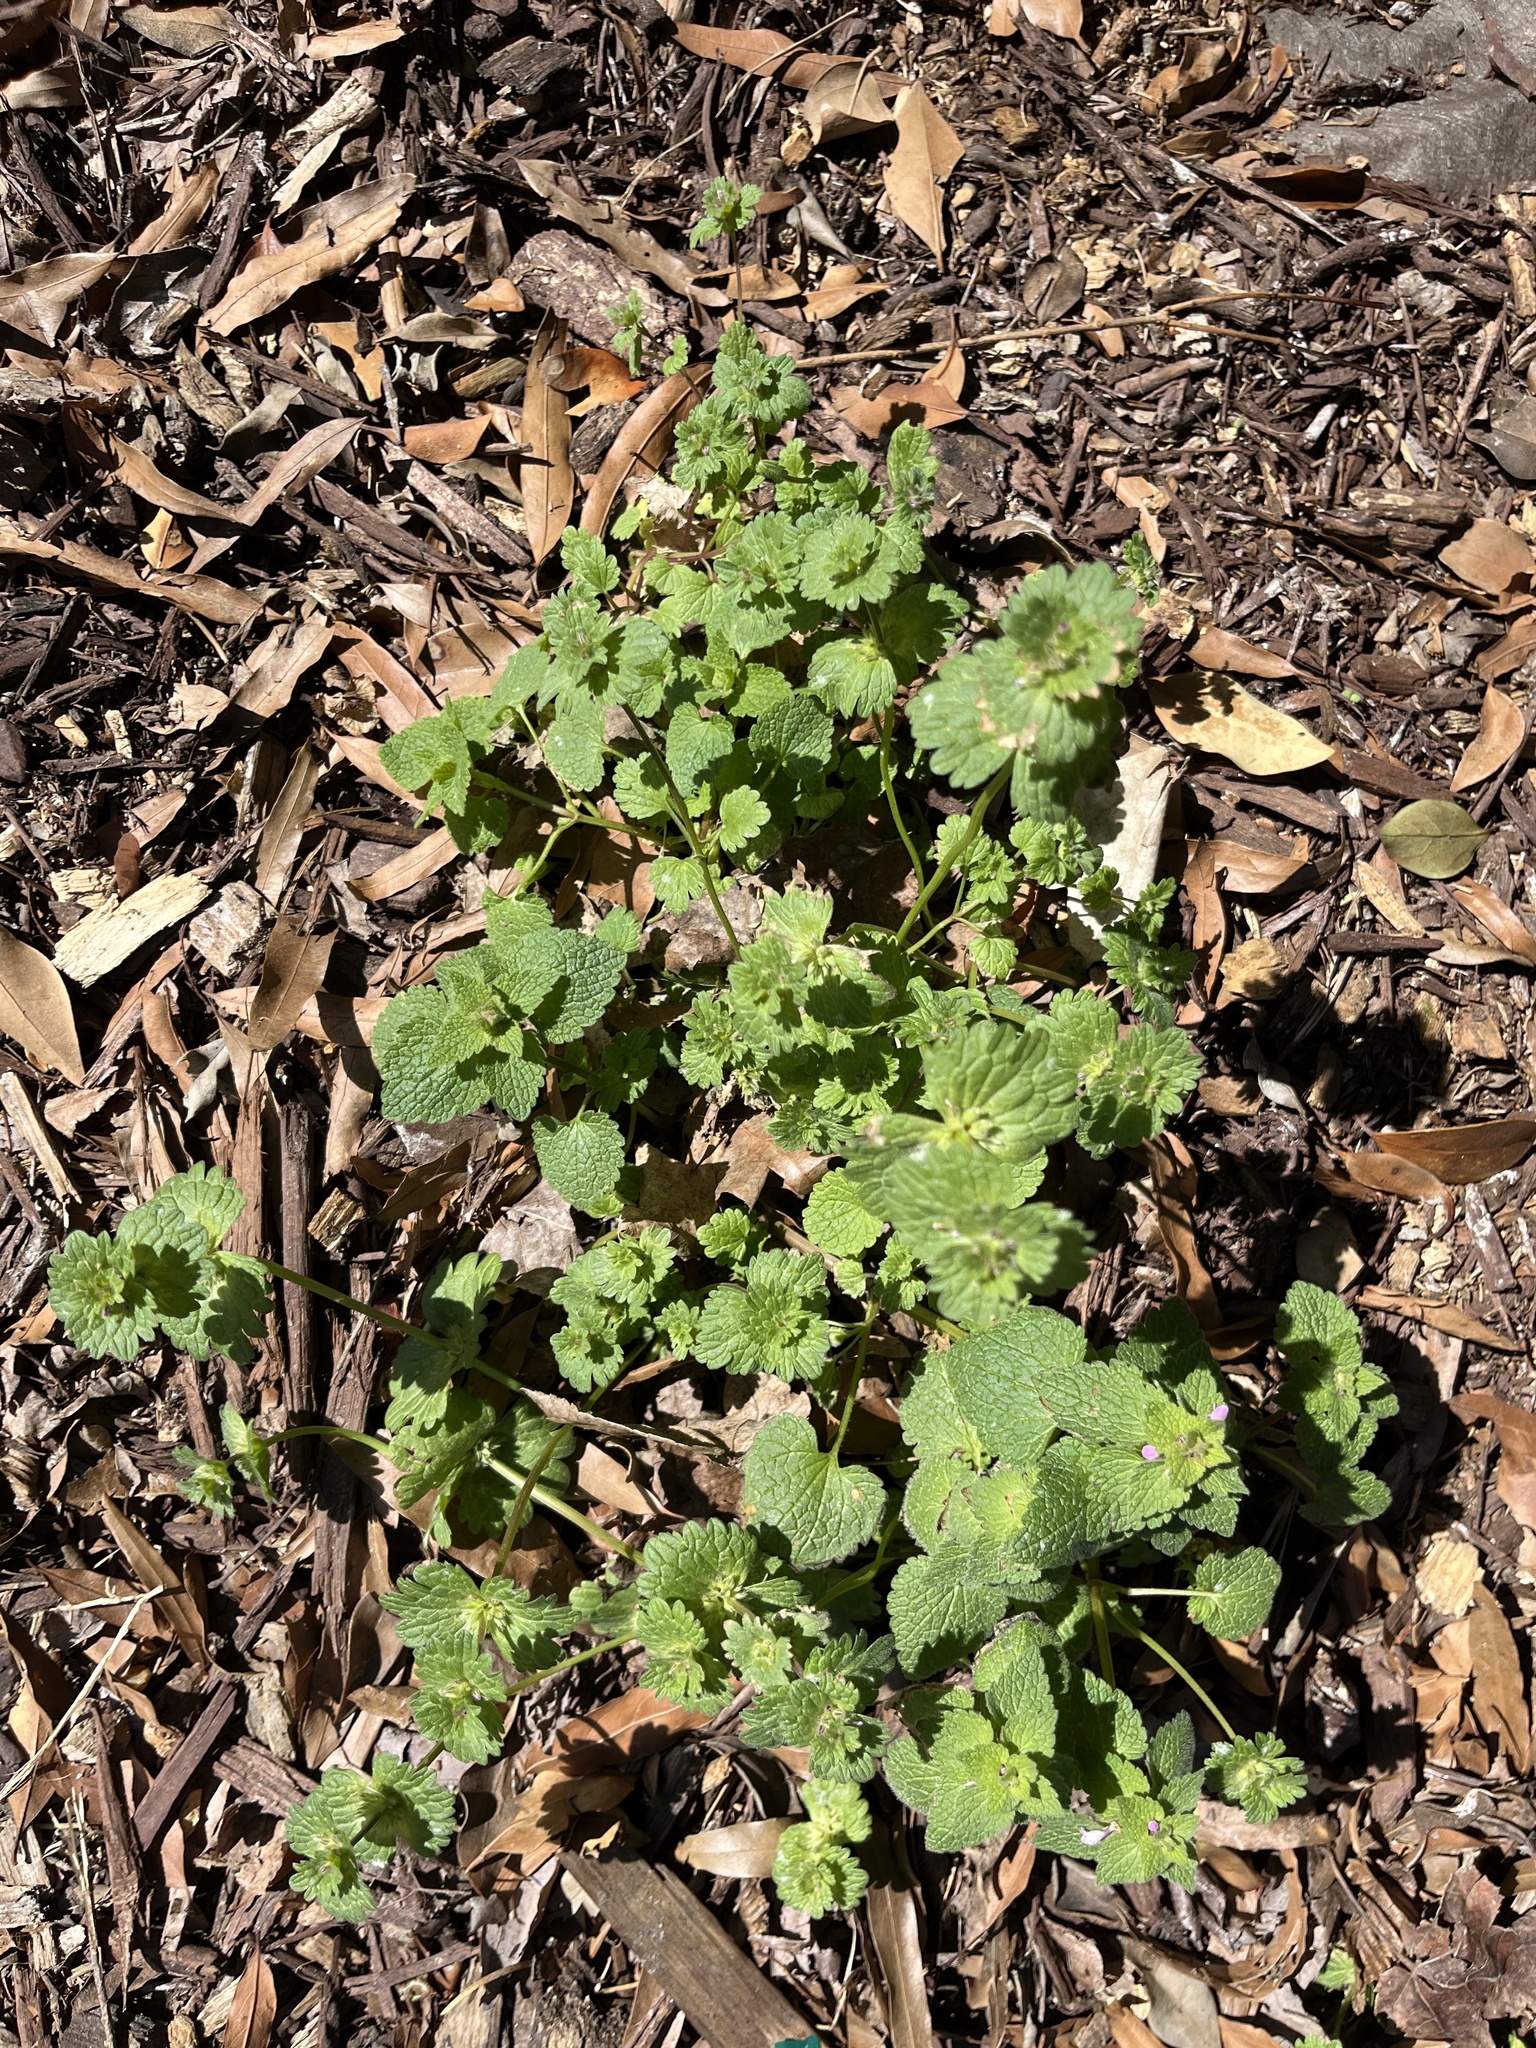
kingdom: Plantae
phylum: Tracheophyta
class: Magnoliopsida
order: Lamiales
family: Lamiaceae
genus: Lamium
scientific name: Lamium amplexicaule
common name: Henbit dead-nettle
